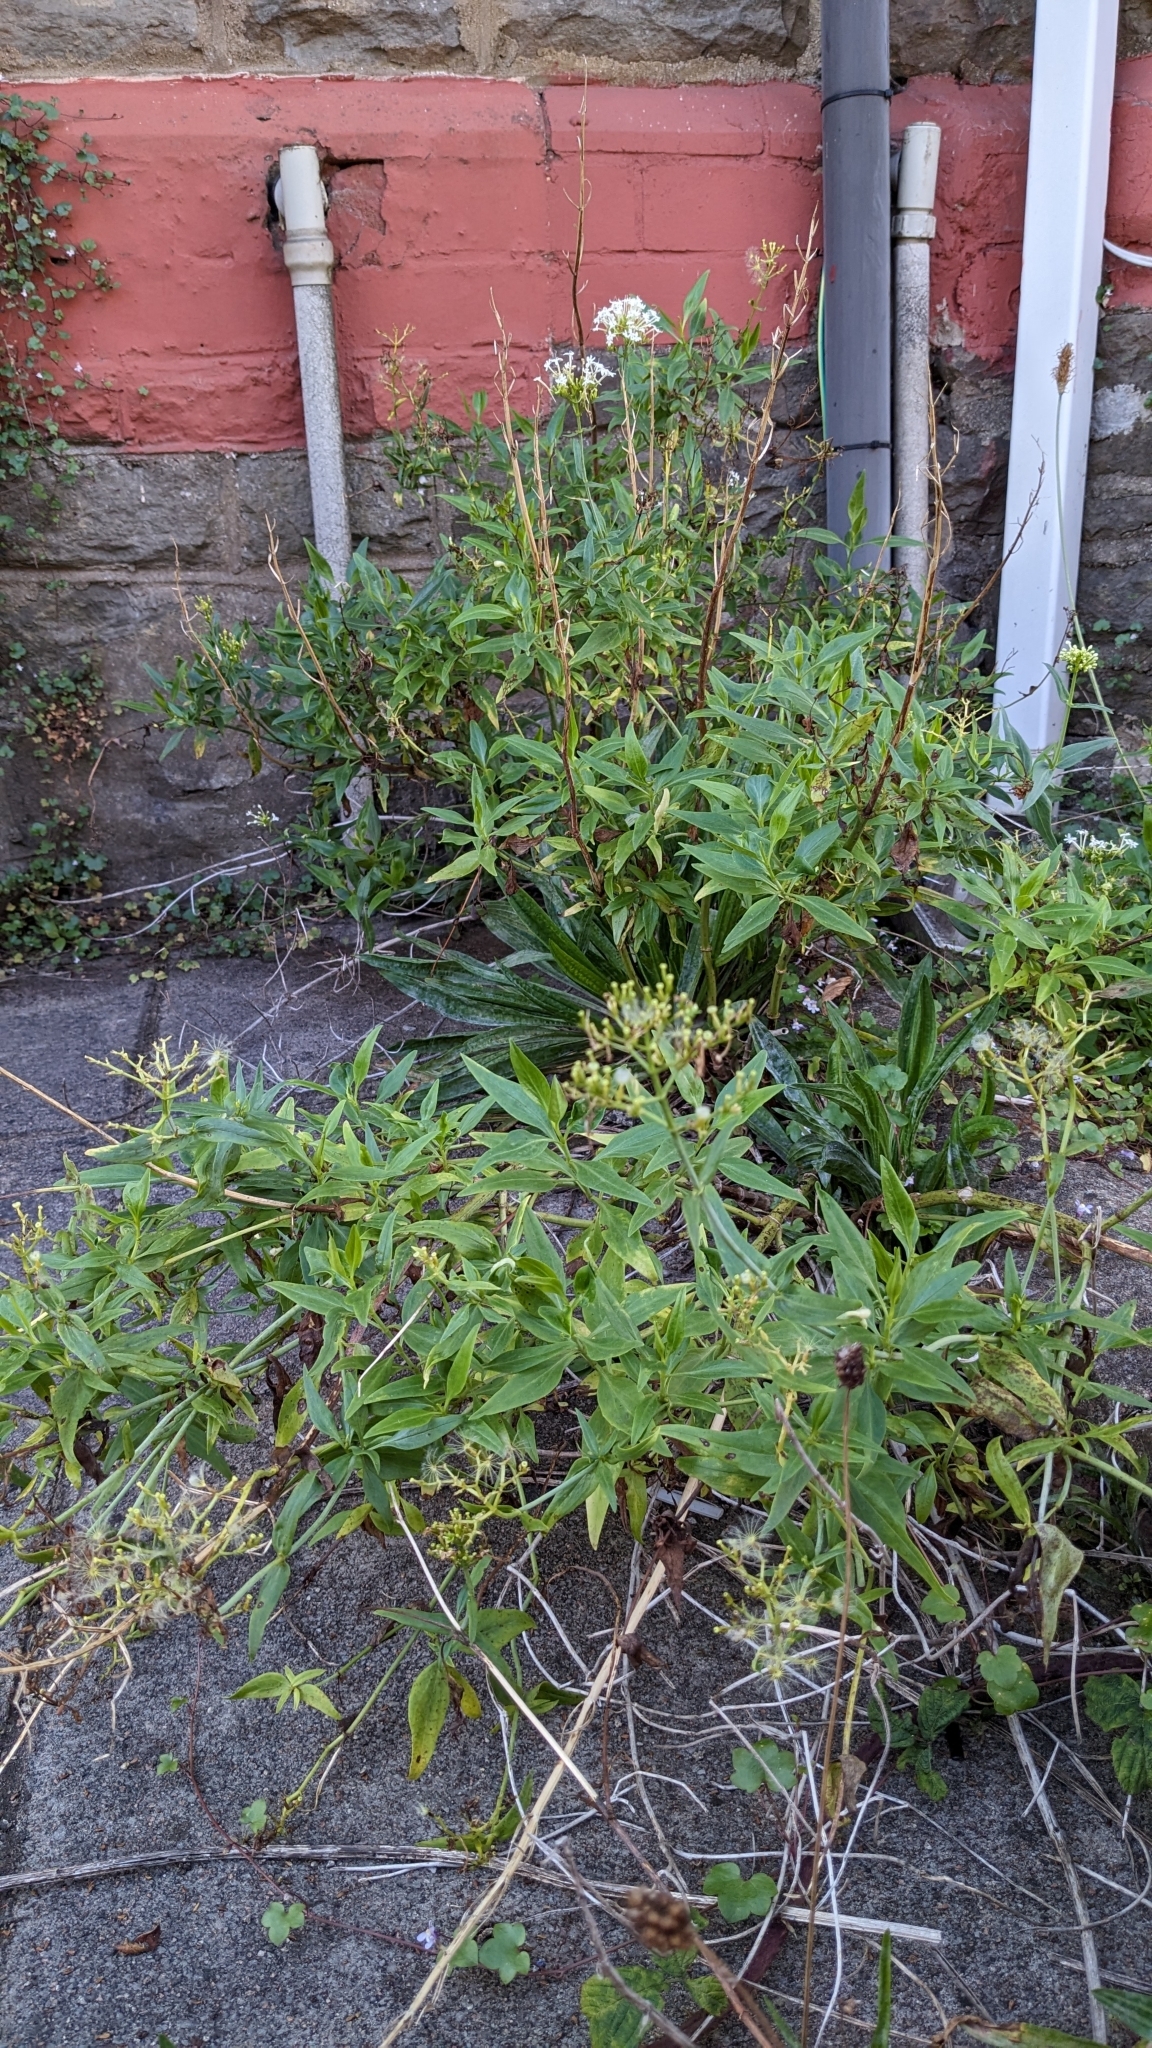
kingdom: Animalia
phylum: Arthropoda
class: Insecta
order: Hemiptera
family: Triozidae
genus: Trioza
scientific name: Trioza centranthi
